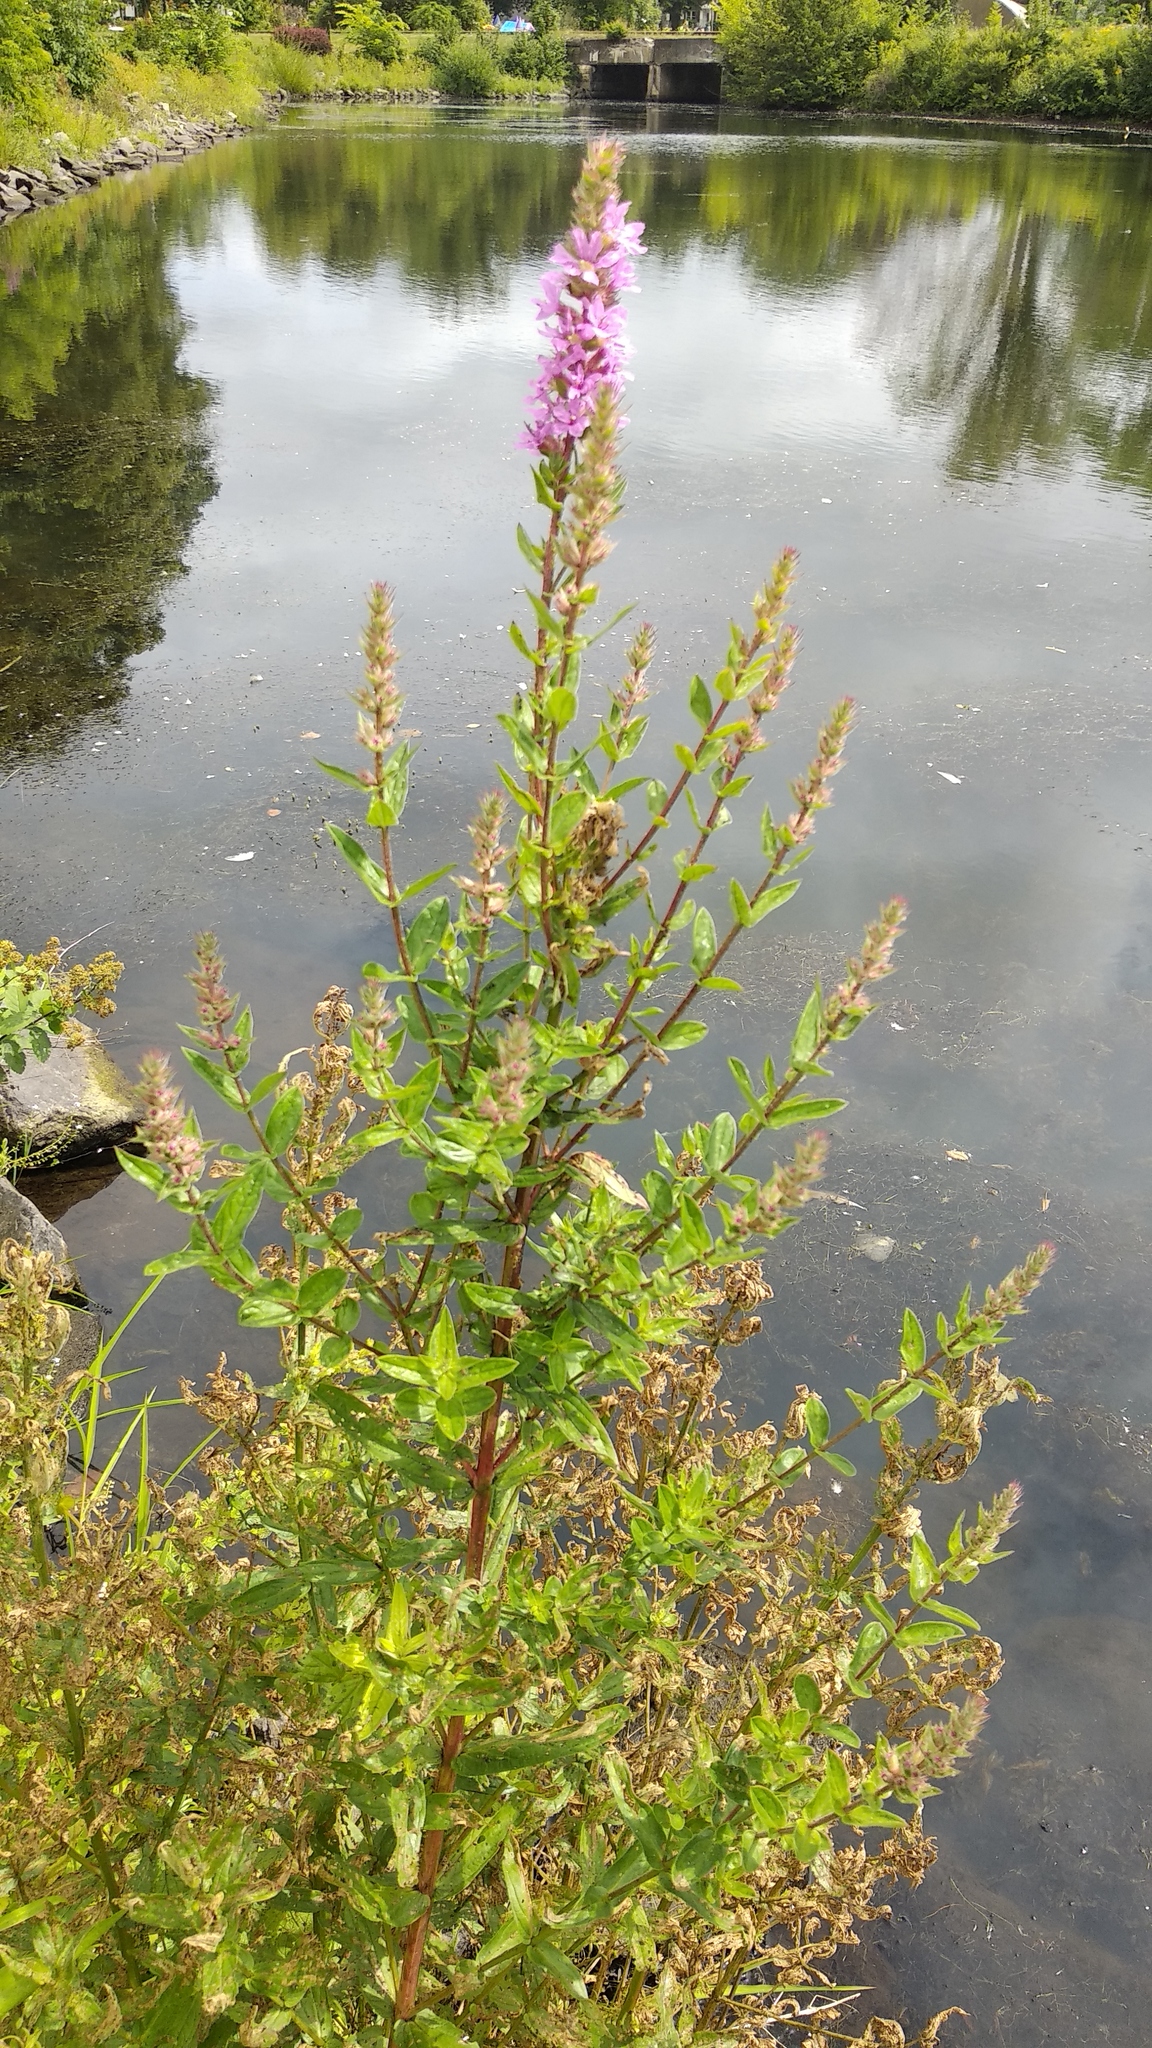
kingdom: Plantae
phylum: Tracheophyta
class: Magnoliopsida
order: Myrtales
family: Lythraceae
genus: Lythrum
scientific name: Lythrum salicaria
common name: Purple loosestrife
